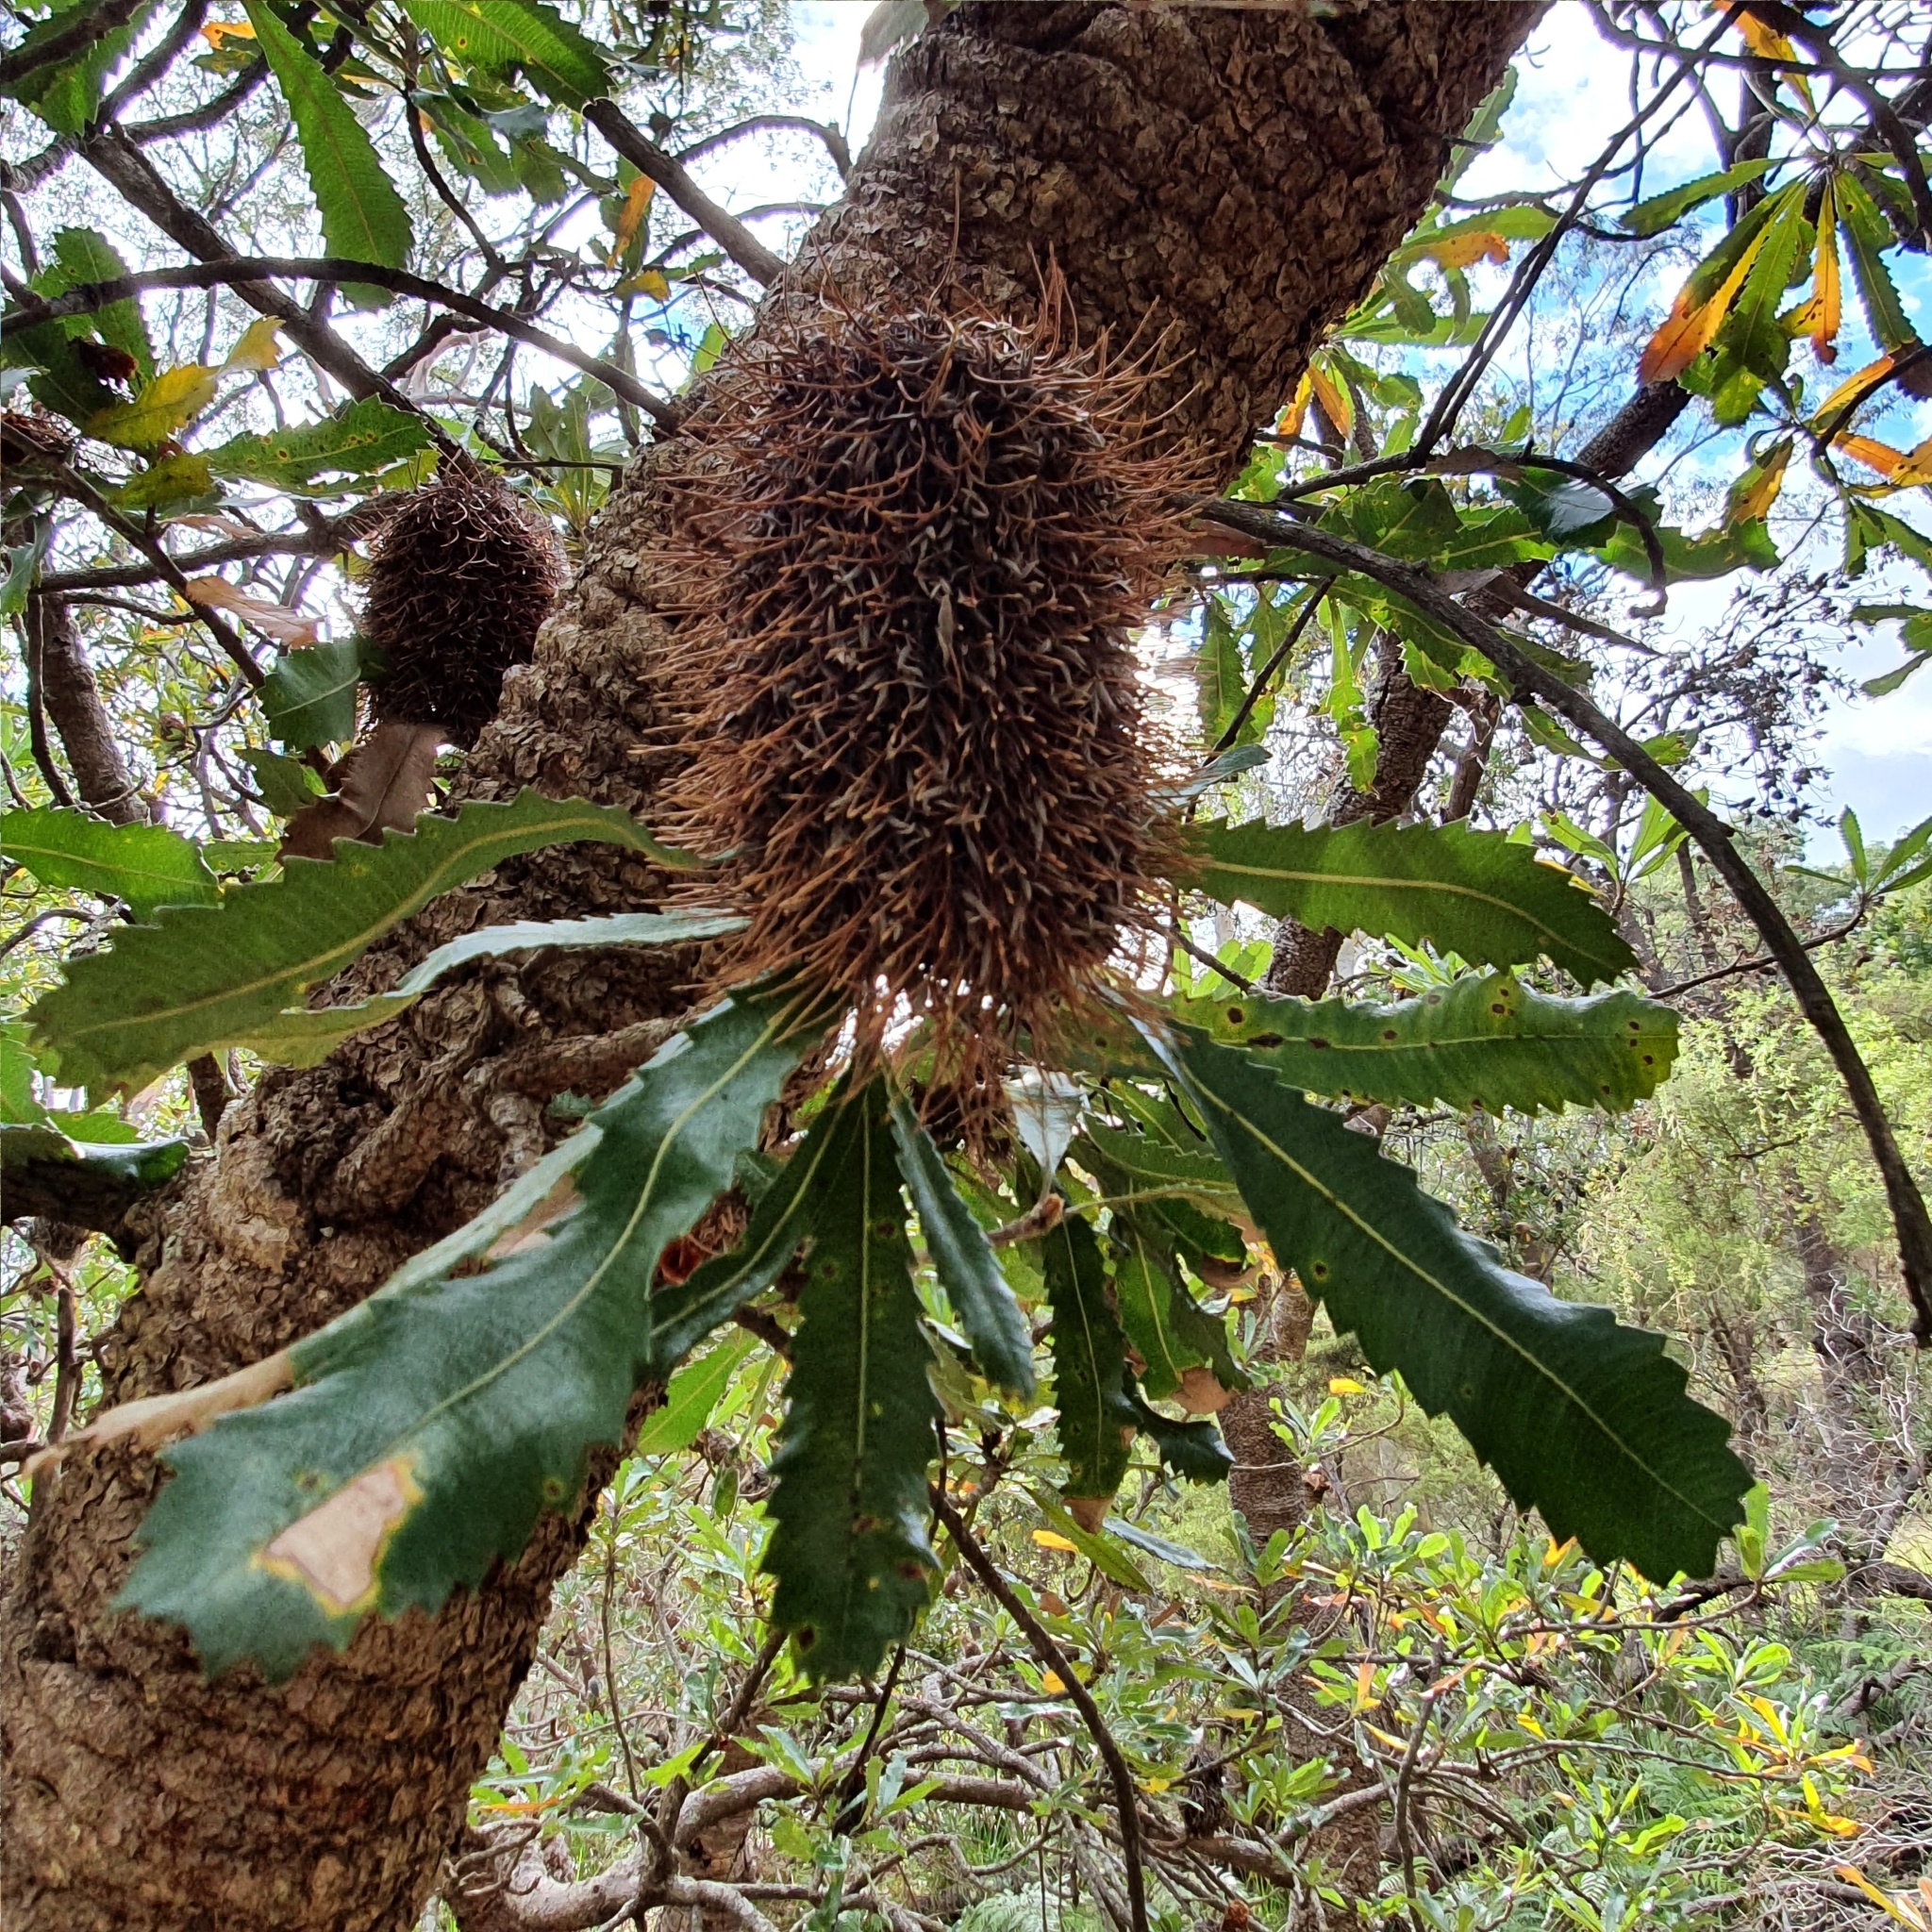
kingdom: Plantae
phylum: Tracheophyta
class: Magnoliopsida
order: Proteales
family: Proteaceae
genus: Banksia
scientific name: Banksia serrata
